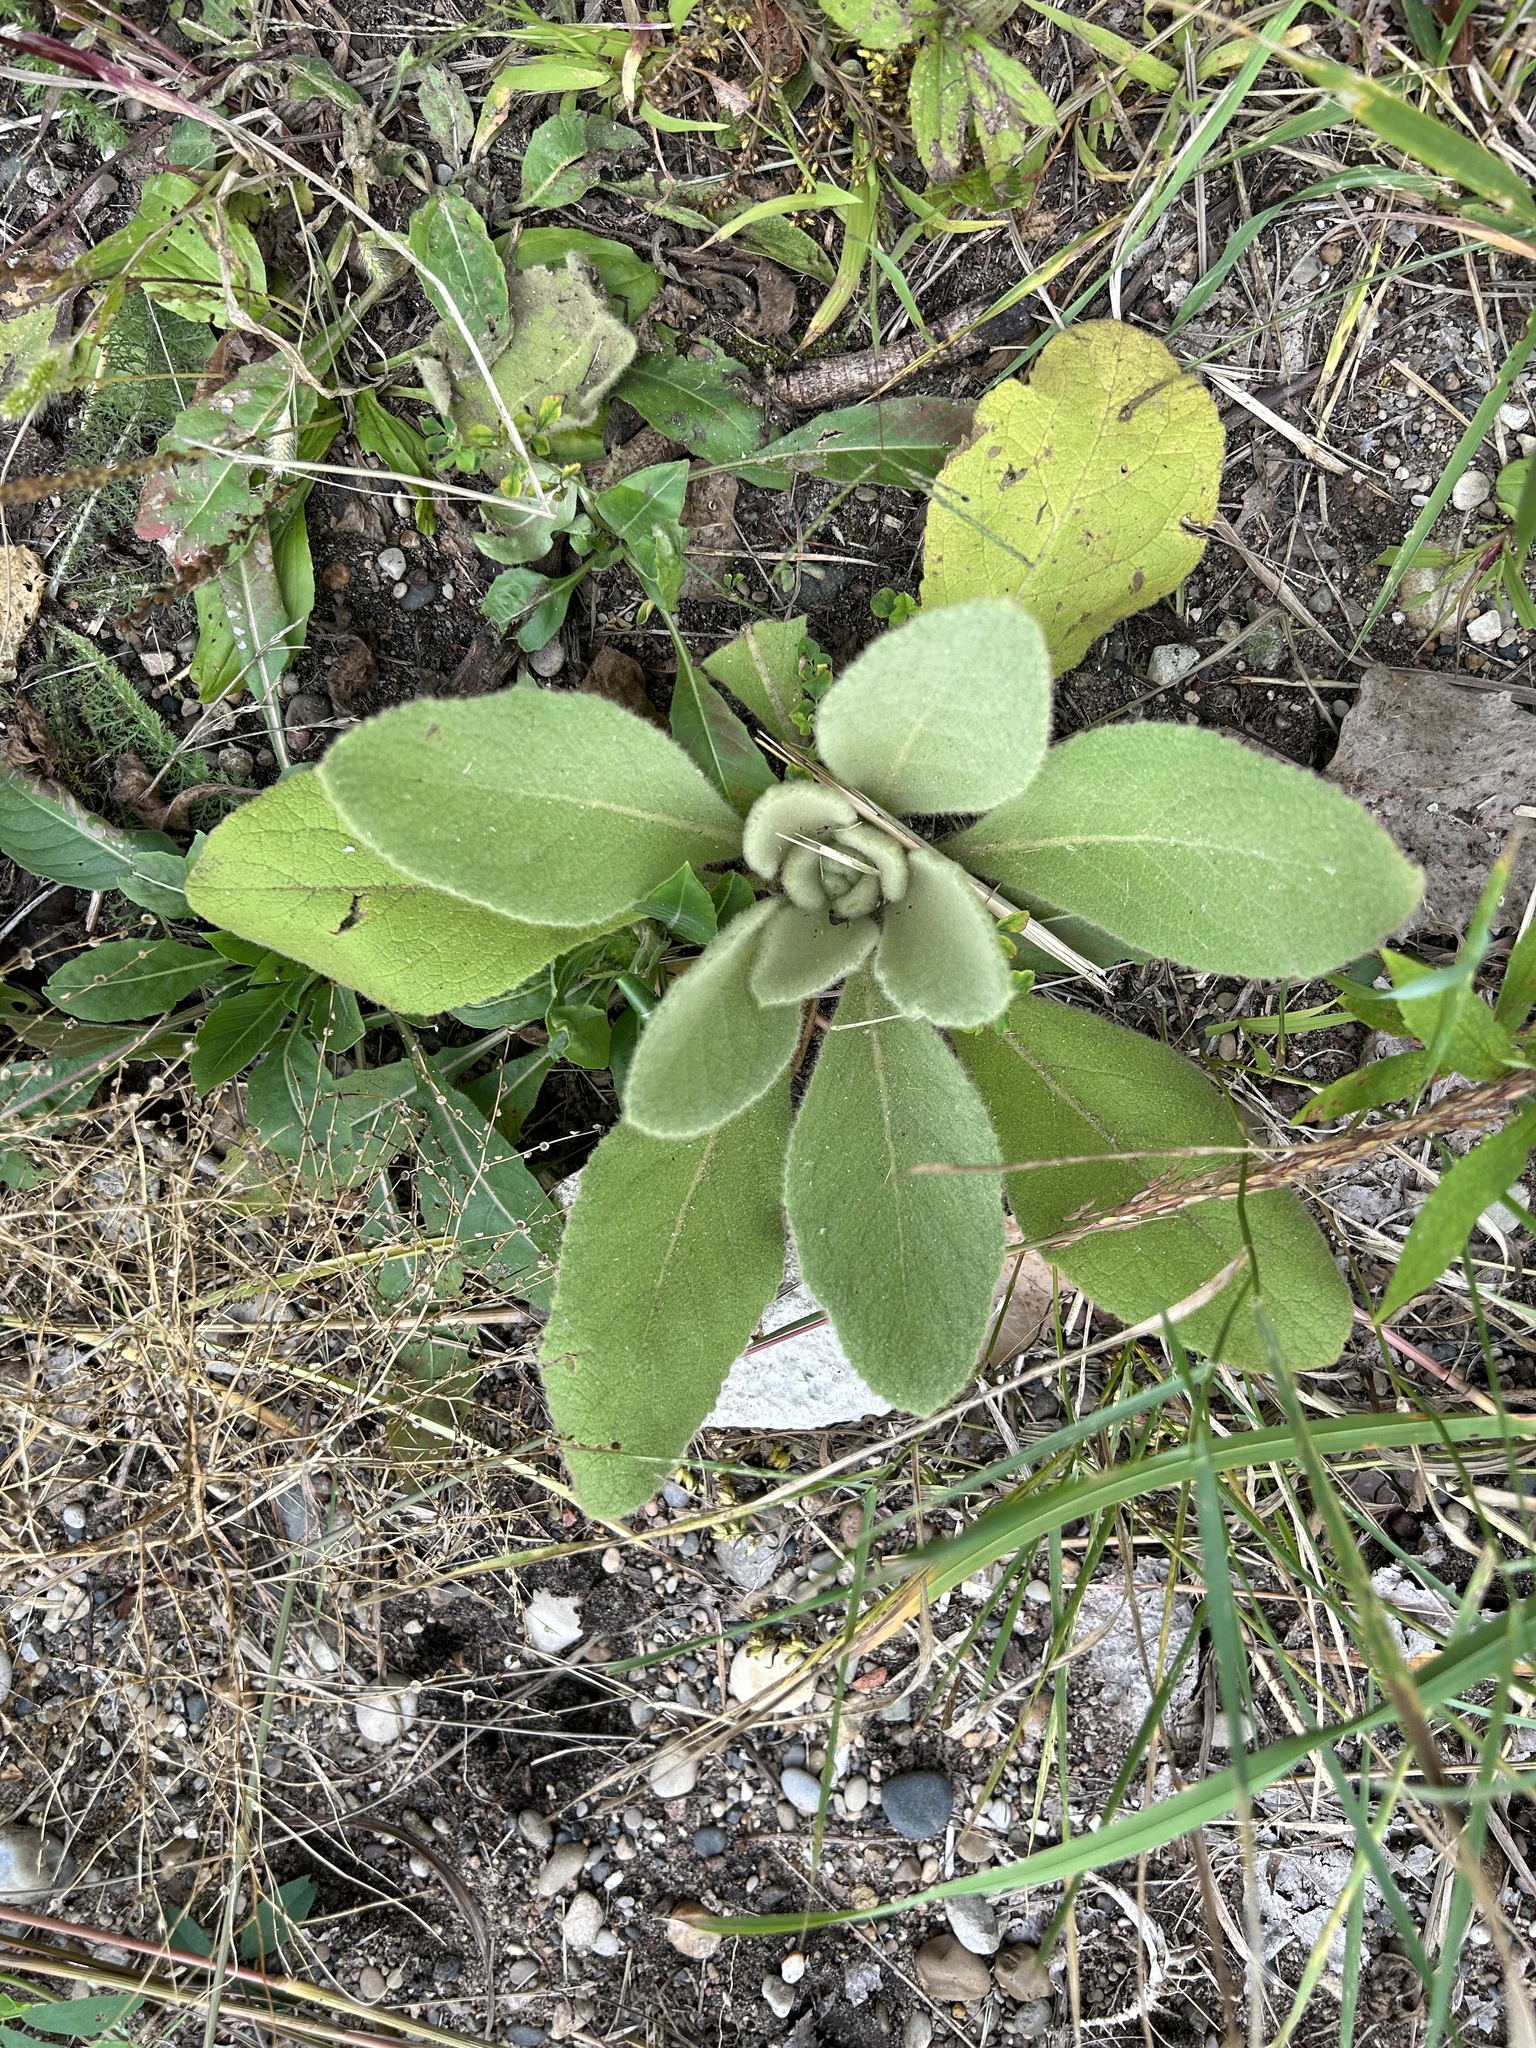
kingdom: Plantae
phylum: Tracheophyta
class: Magnoliopsida
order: Lamiales
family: Scrophulariaceae
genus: Verbascum
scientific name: Verbascum thapsus
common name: Common mullein
